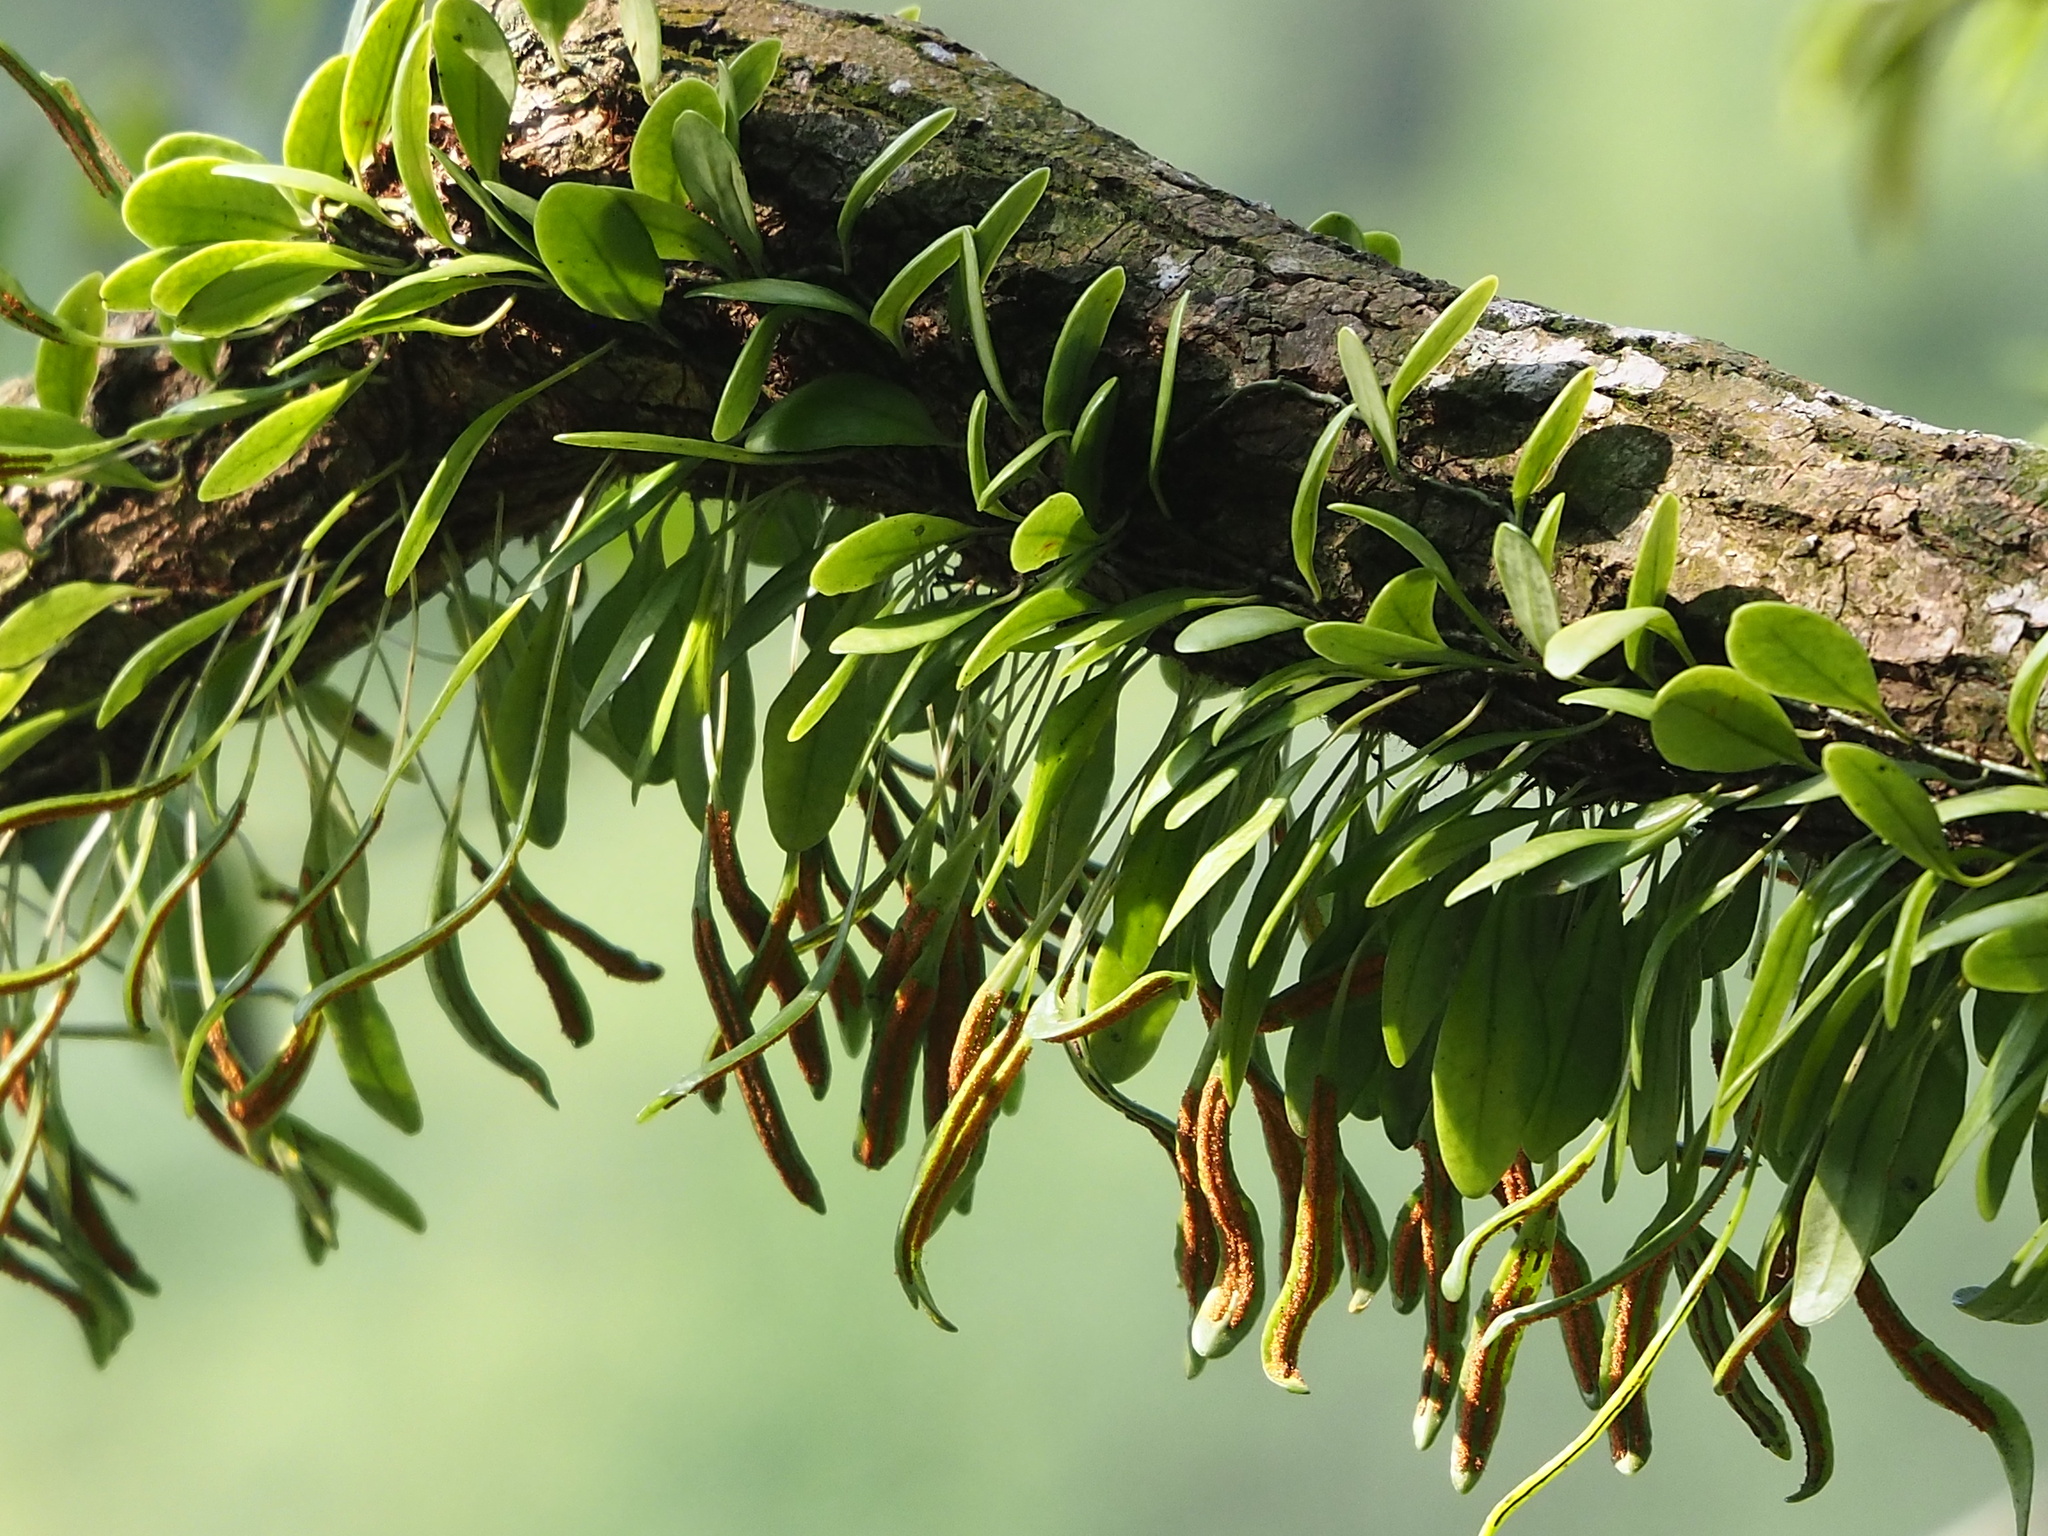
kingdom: Plantae
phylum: Tracheophyta
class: Polypodiopsida
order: Polypodiales
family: Polypodiaceae
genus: Lepisorus
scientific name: Lepisorus microphyllus
